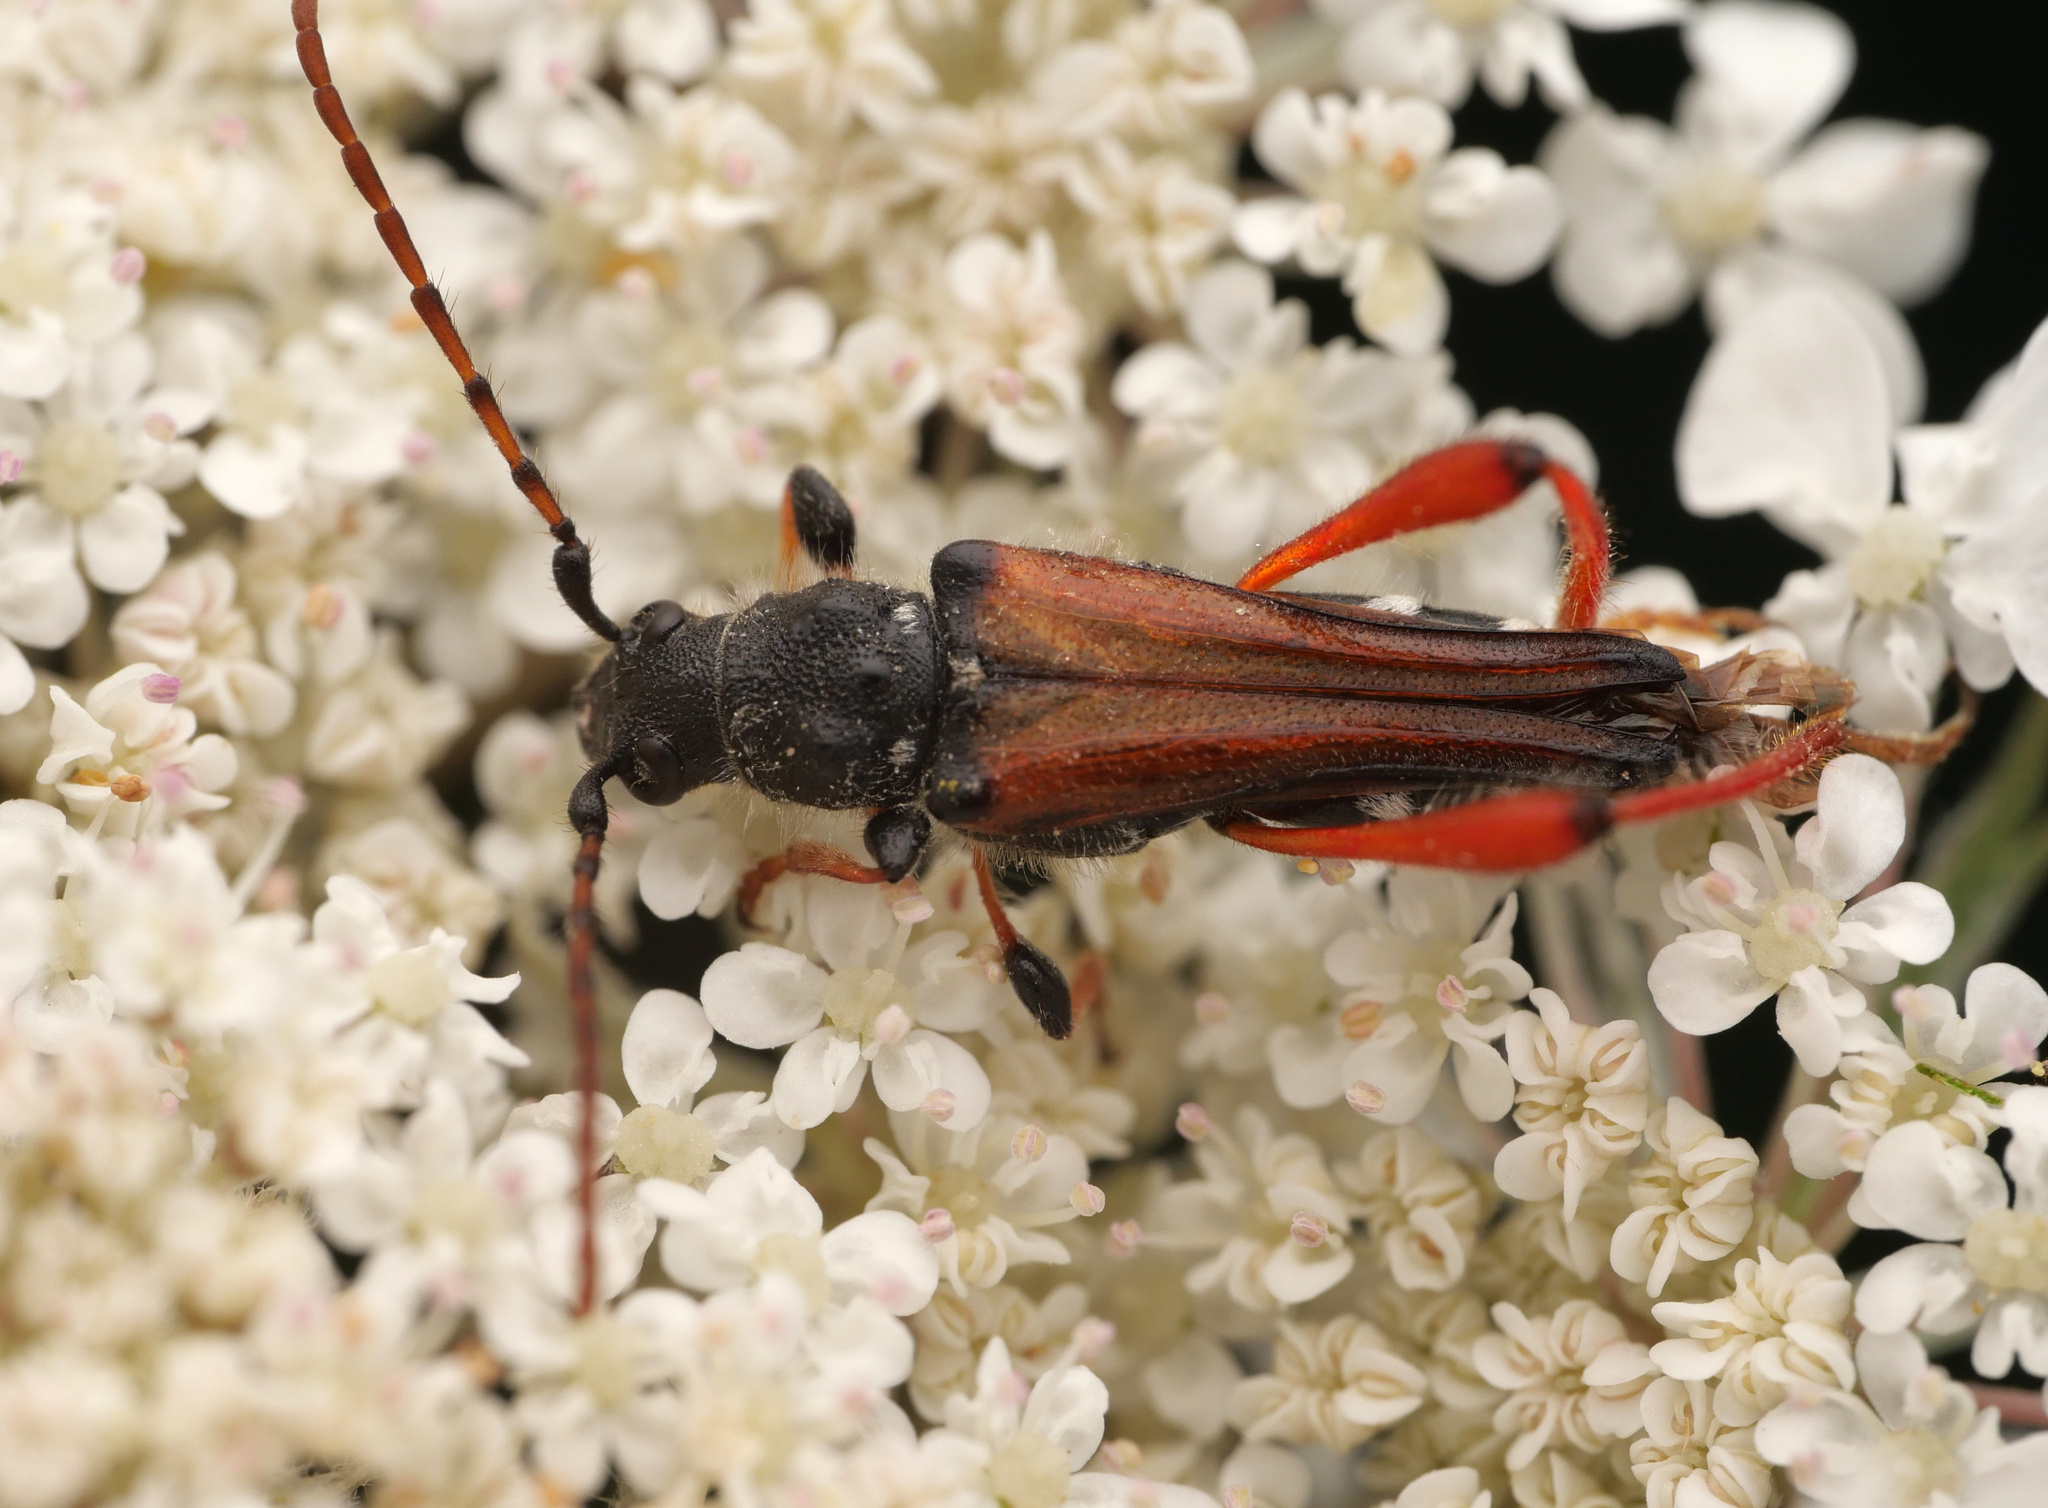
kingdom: Animalia
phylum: Arthropoda
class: Insecta
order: Coleoptera
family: Cerambycidae
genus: Stenopterus
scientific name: Stenopterus rufus
